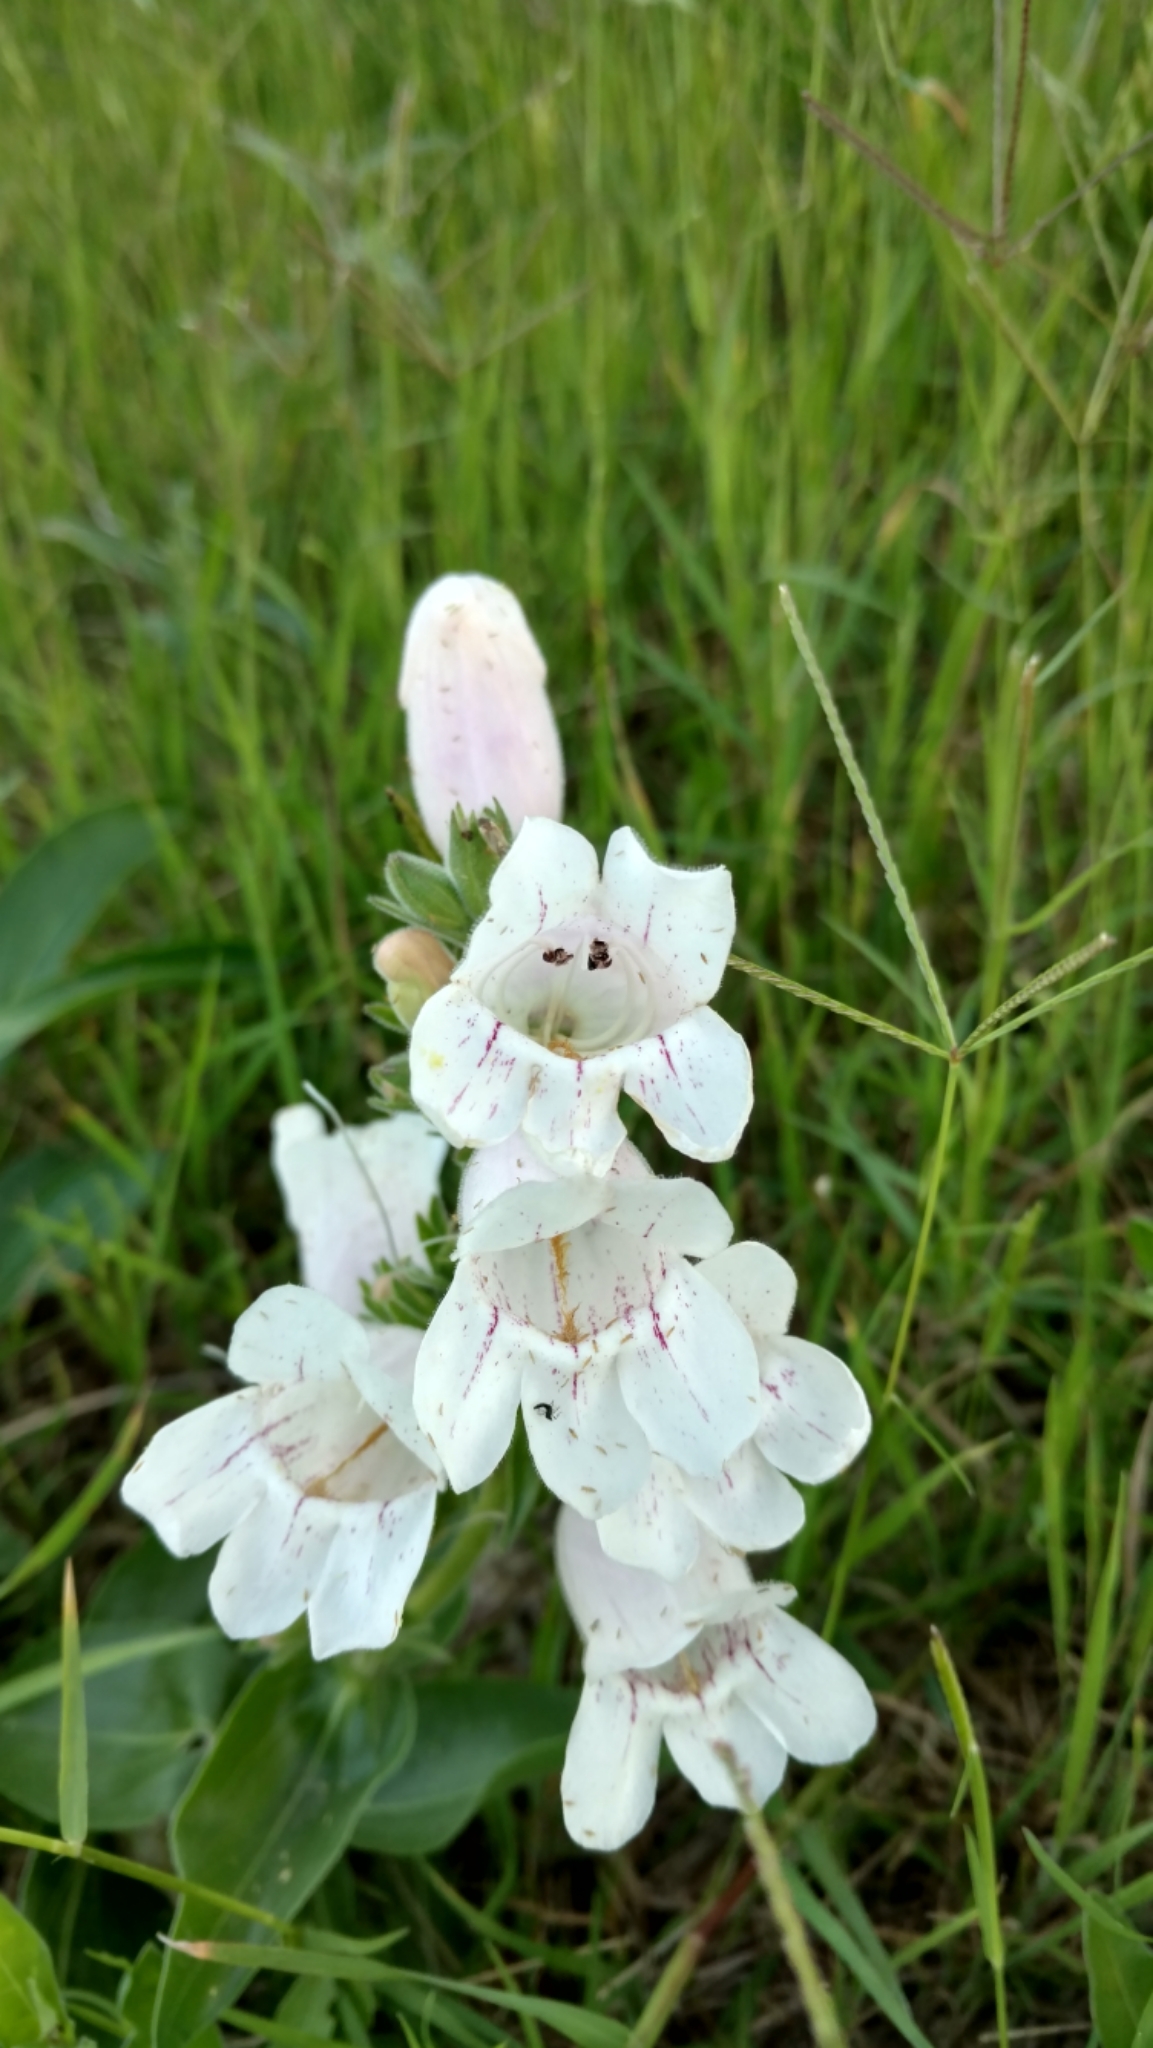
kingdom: Plantae
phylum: Tracheophyta
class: Magnoliopsida
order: Lamiales
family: Plantaginaceae
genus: Penstemon
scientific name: Penstemon cobaea
